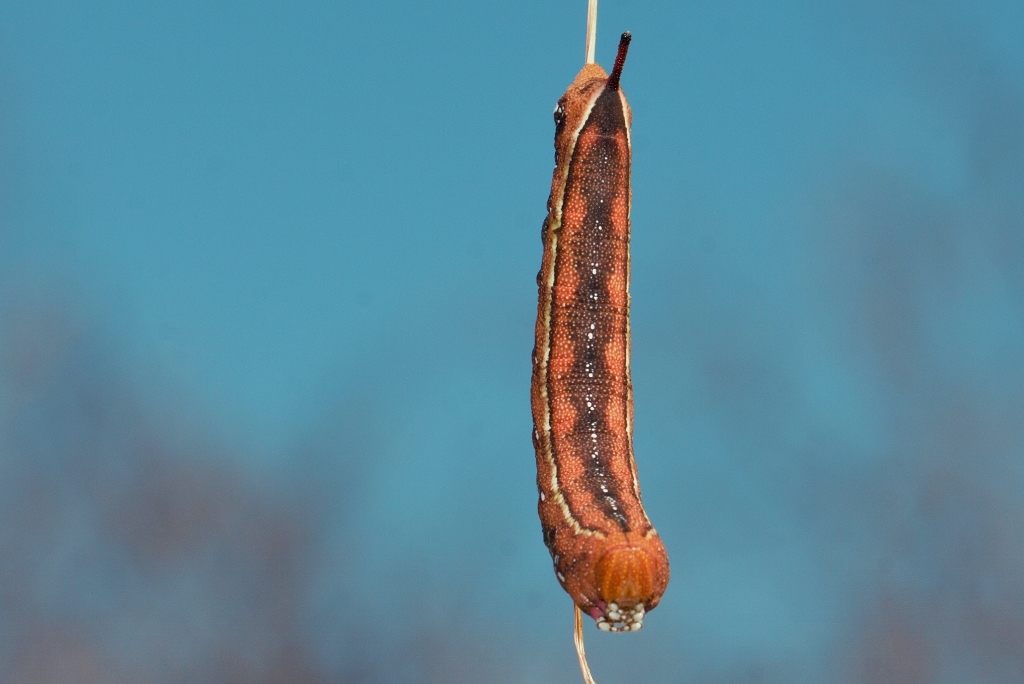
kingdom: Animalia
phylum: Arthropoda
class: Insecta
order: Lepidoptera
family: Sphingidae
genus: Nephele
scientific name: Nephele comma
